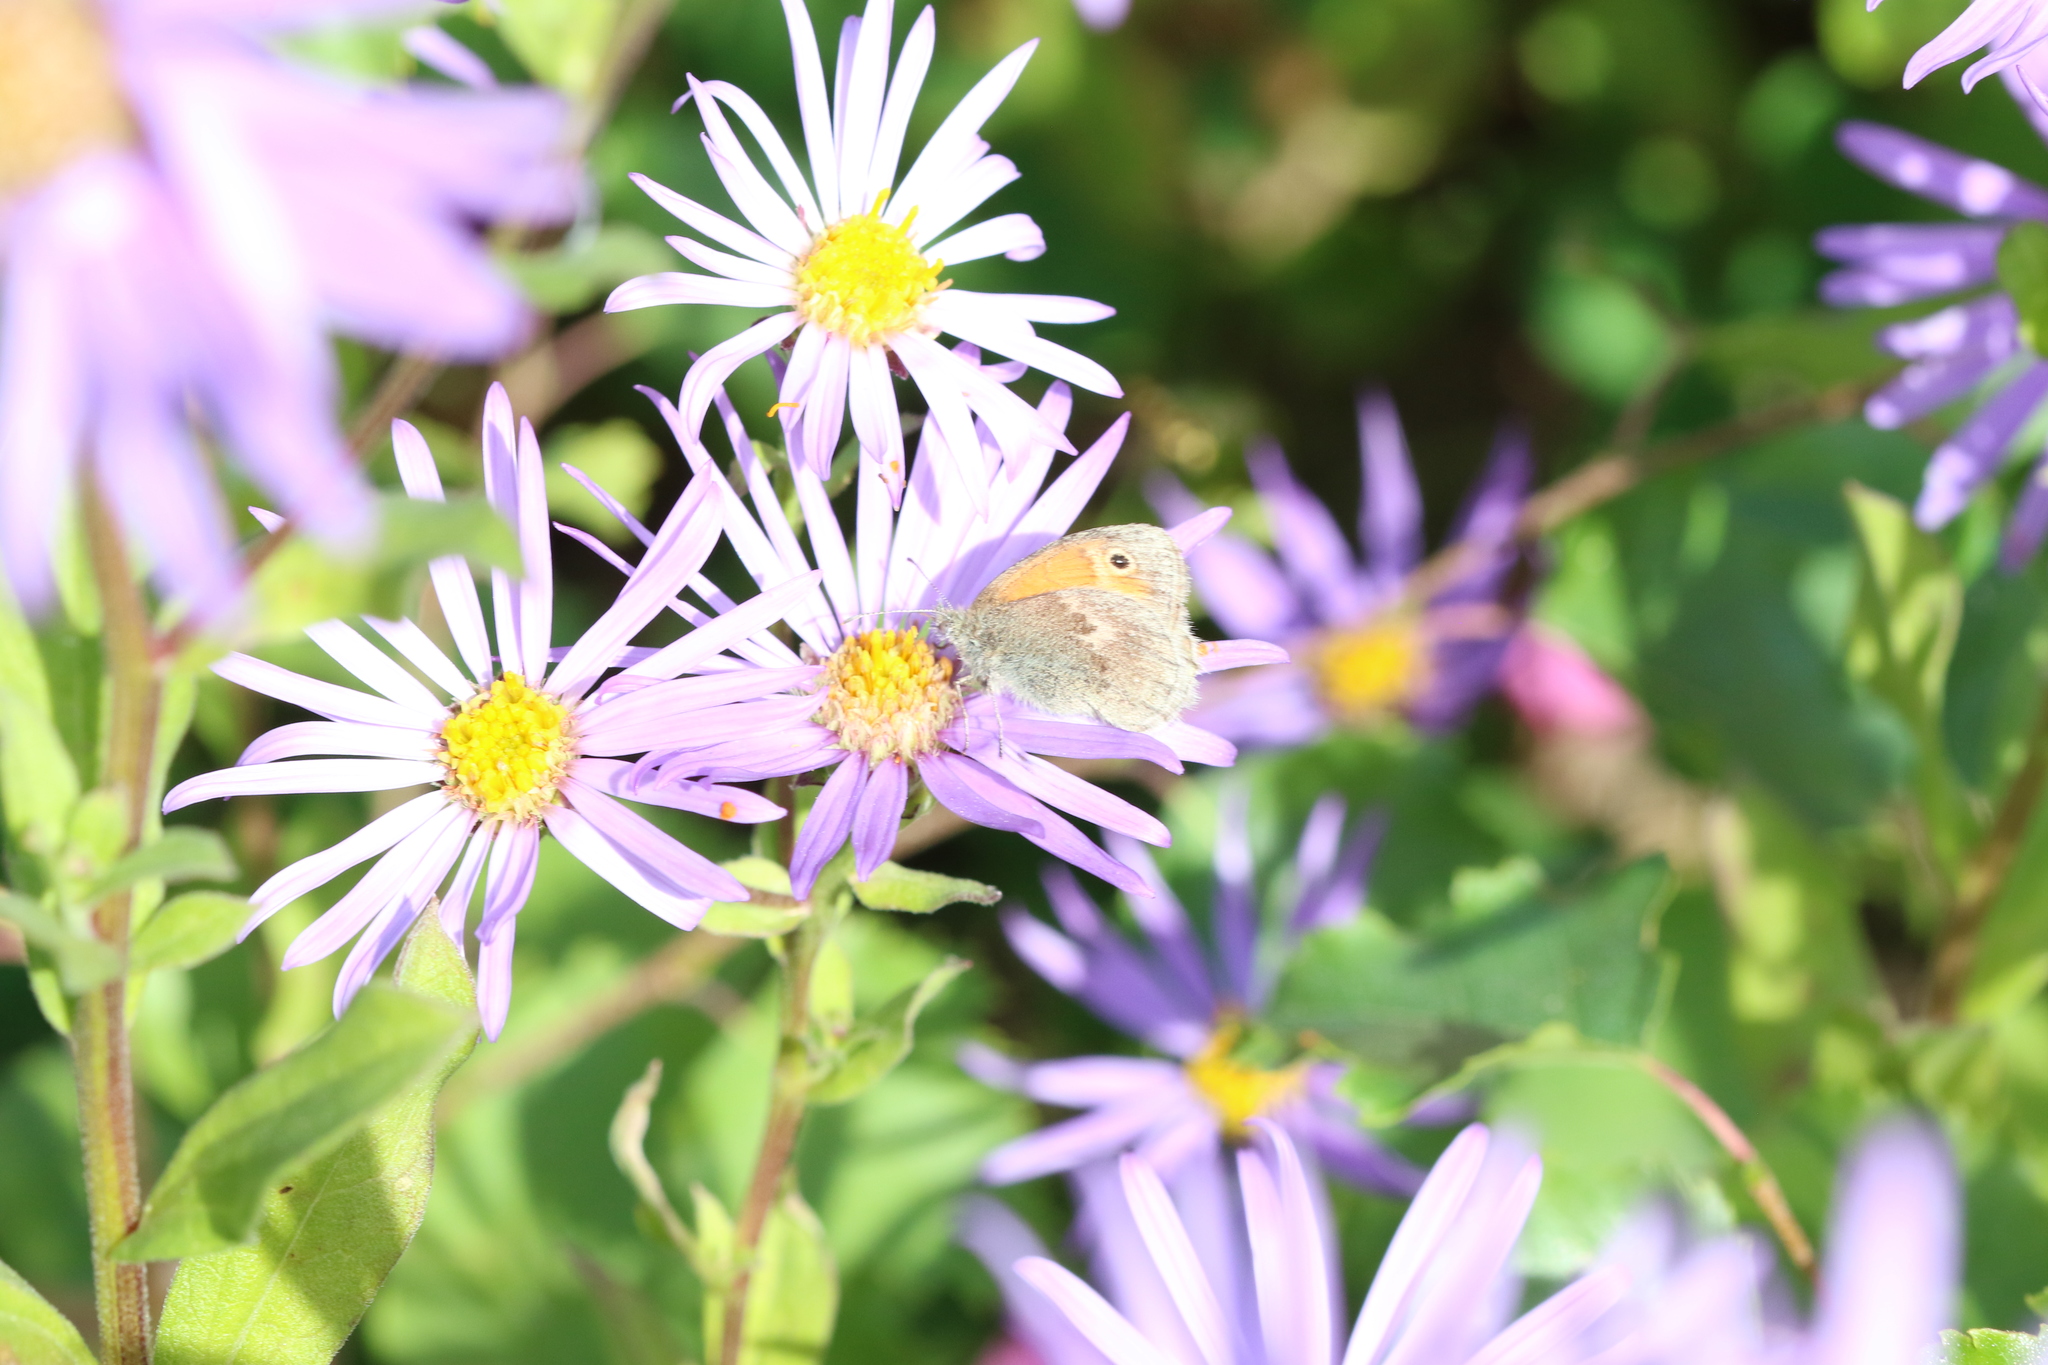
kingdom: Animalia
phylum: Arthropoda
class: Insecta
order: Lepidoptera
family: Nymphalidae
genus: Coenonympha
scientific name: Coenonympha pamphilus
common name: Small heath
